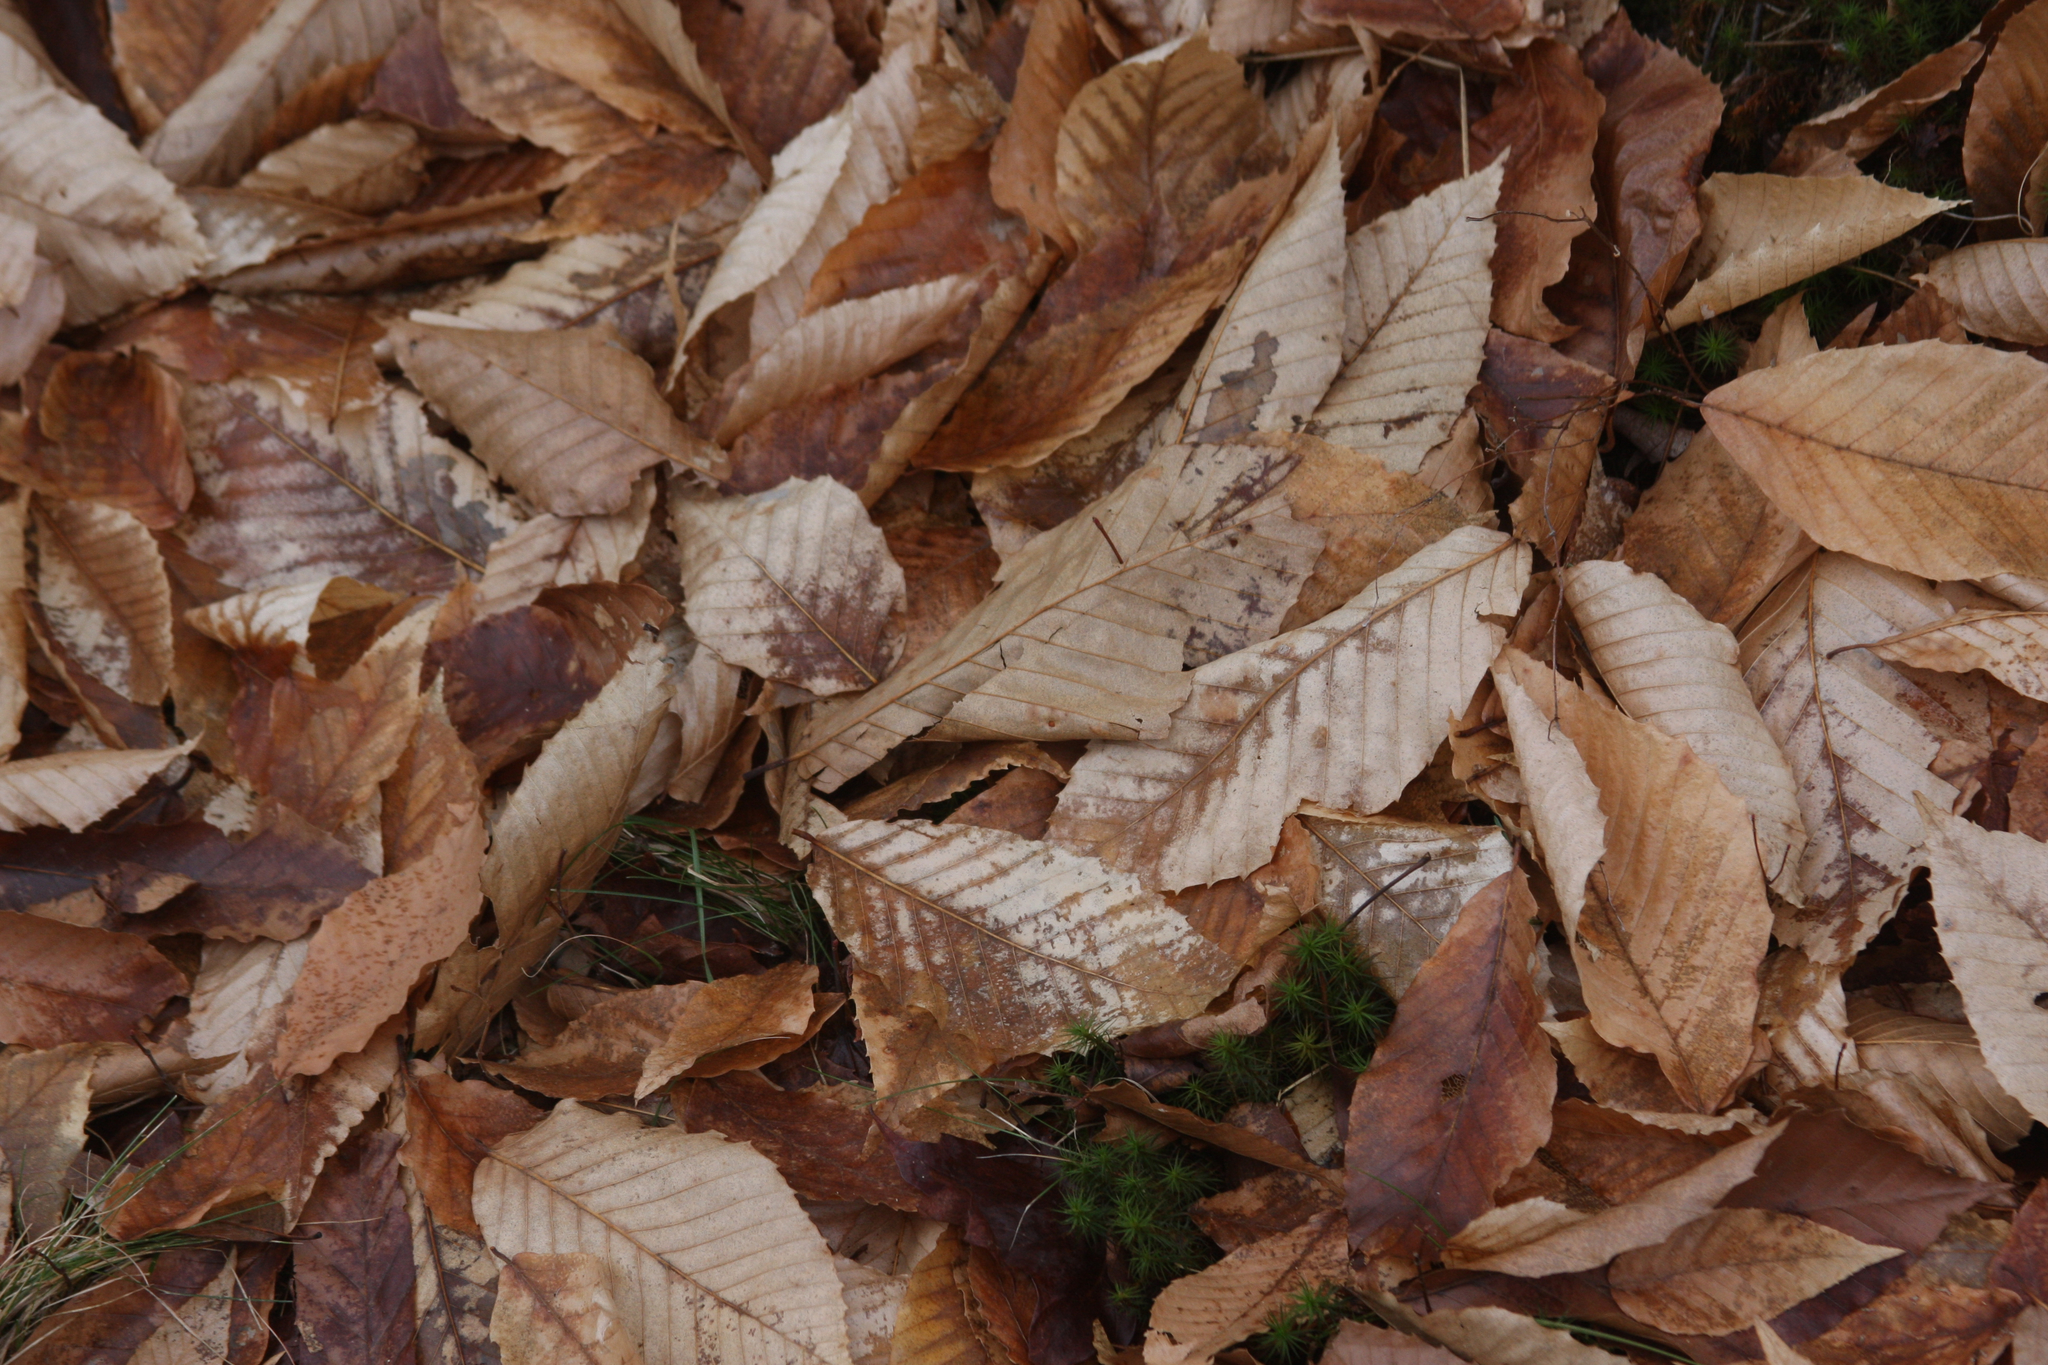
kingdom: Plantae
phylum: Tracheophyta
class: Magnoliopsida
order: Fagales
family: Fagaceae
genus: Fagus
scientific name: Fagus grandifolia
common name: American beech
